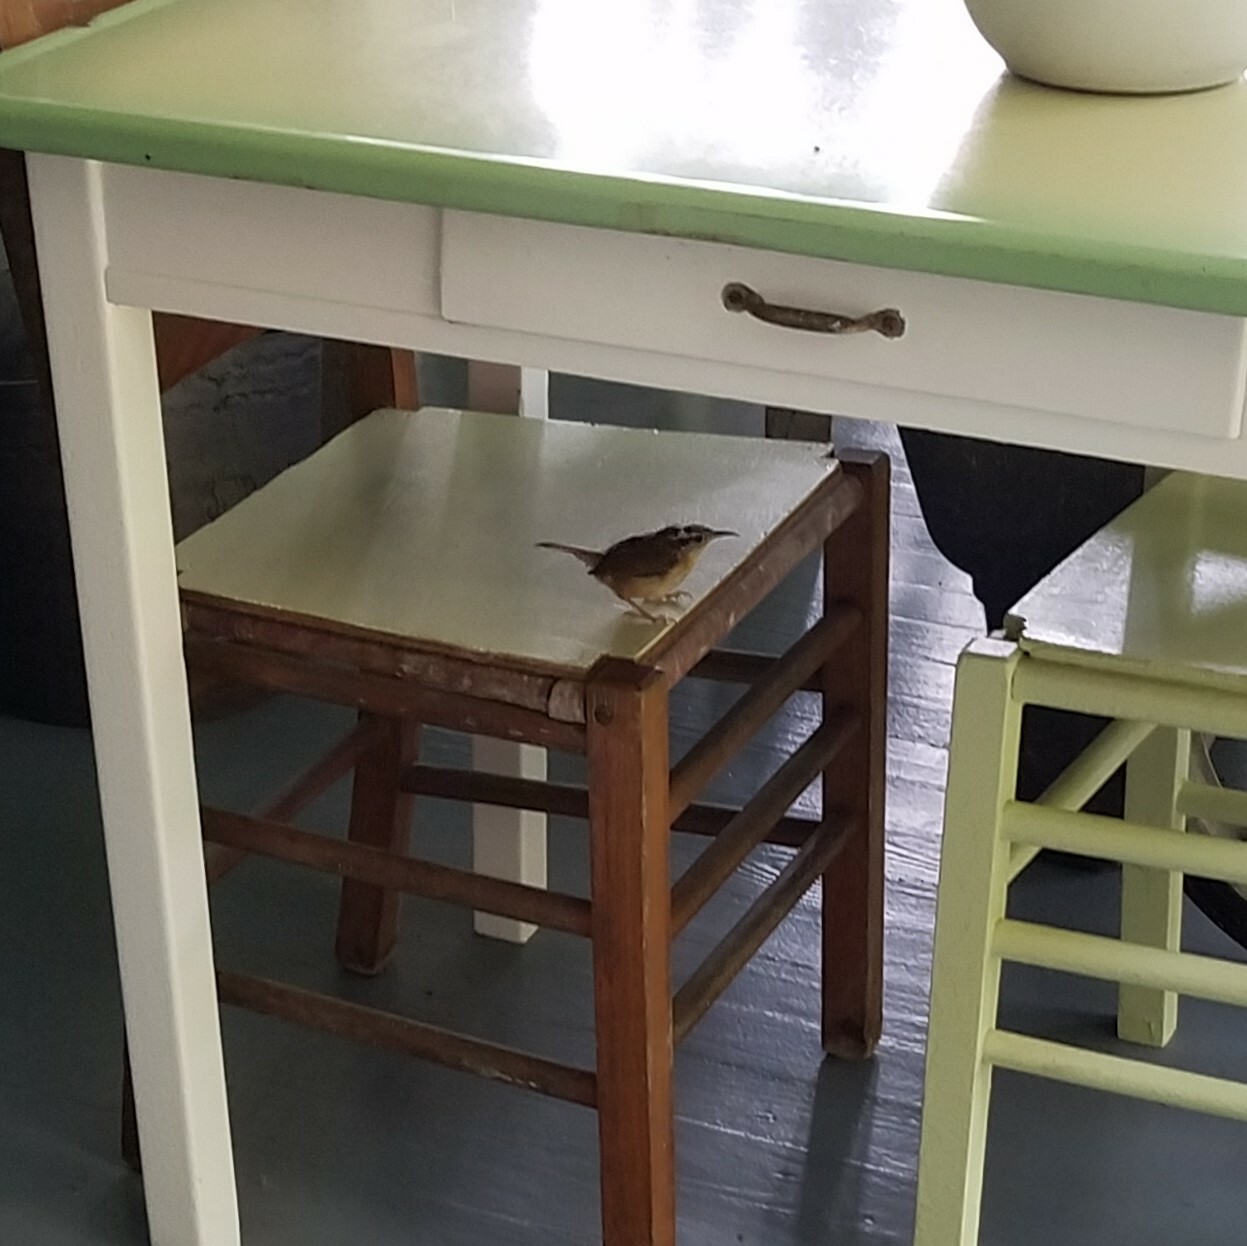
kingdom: Animalia
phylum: Chordata
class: Aves
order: Passeriformes
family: Troglodytidae
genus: Thryothorus
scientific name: Thryothorus ludovicianus
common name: Carolina wren
